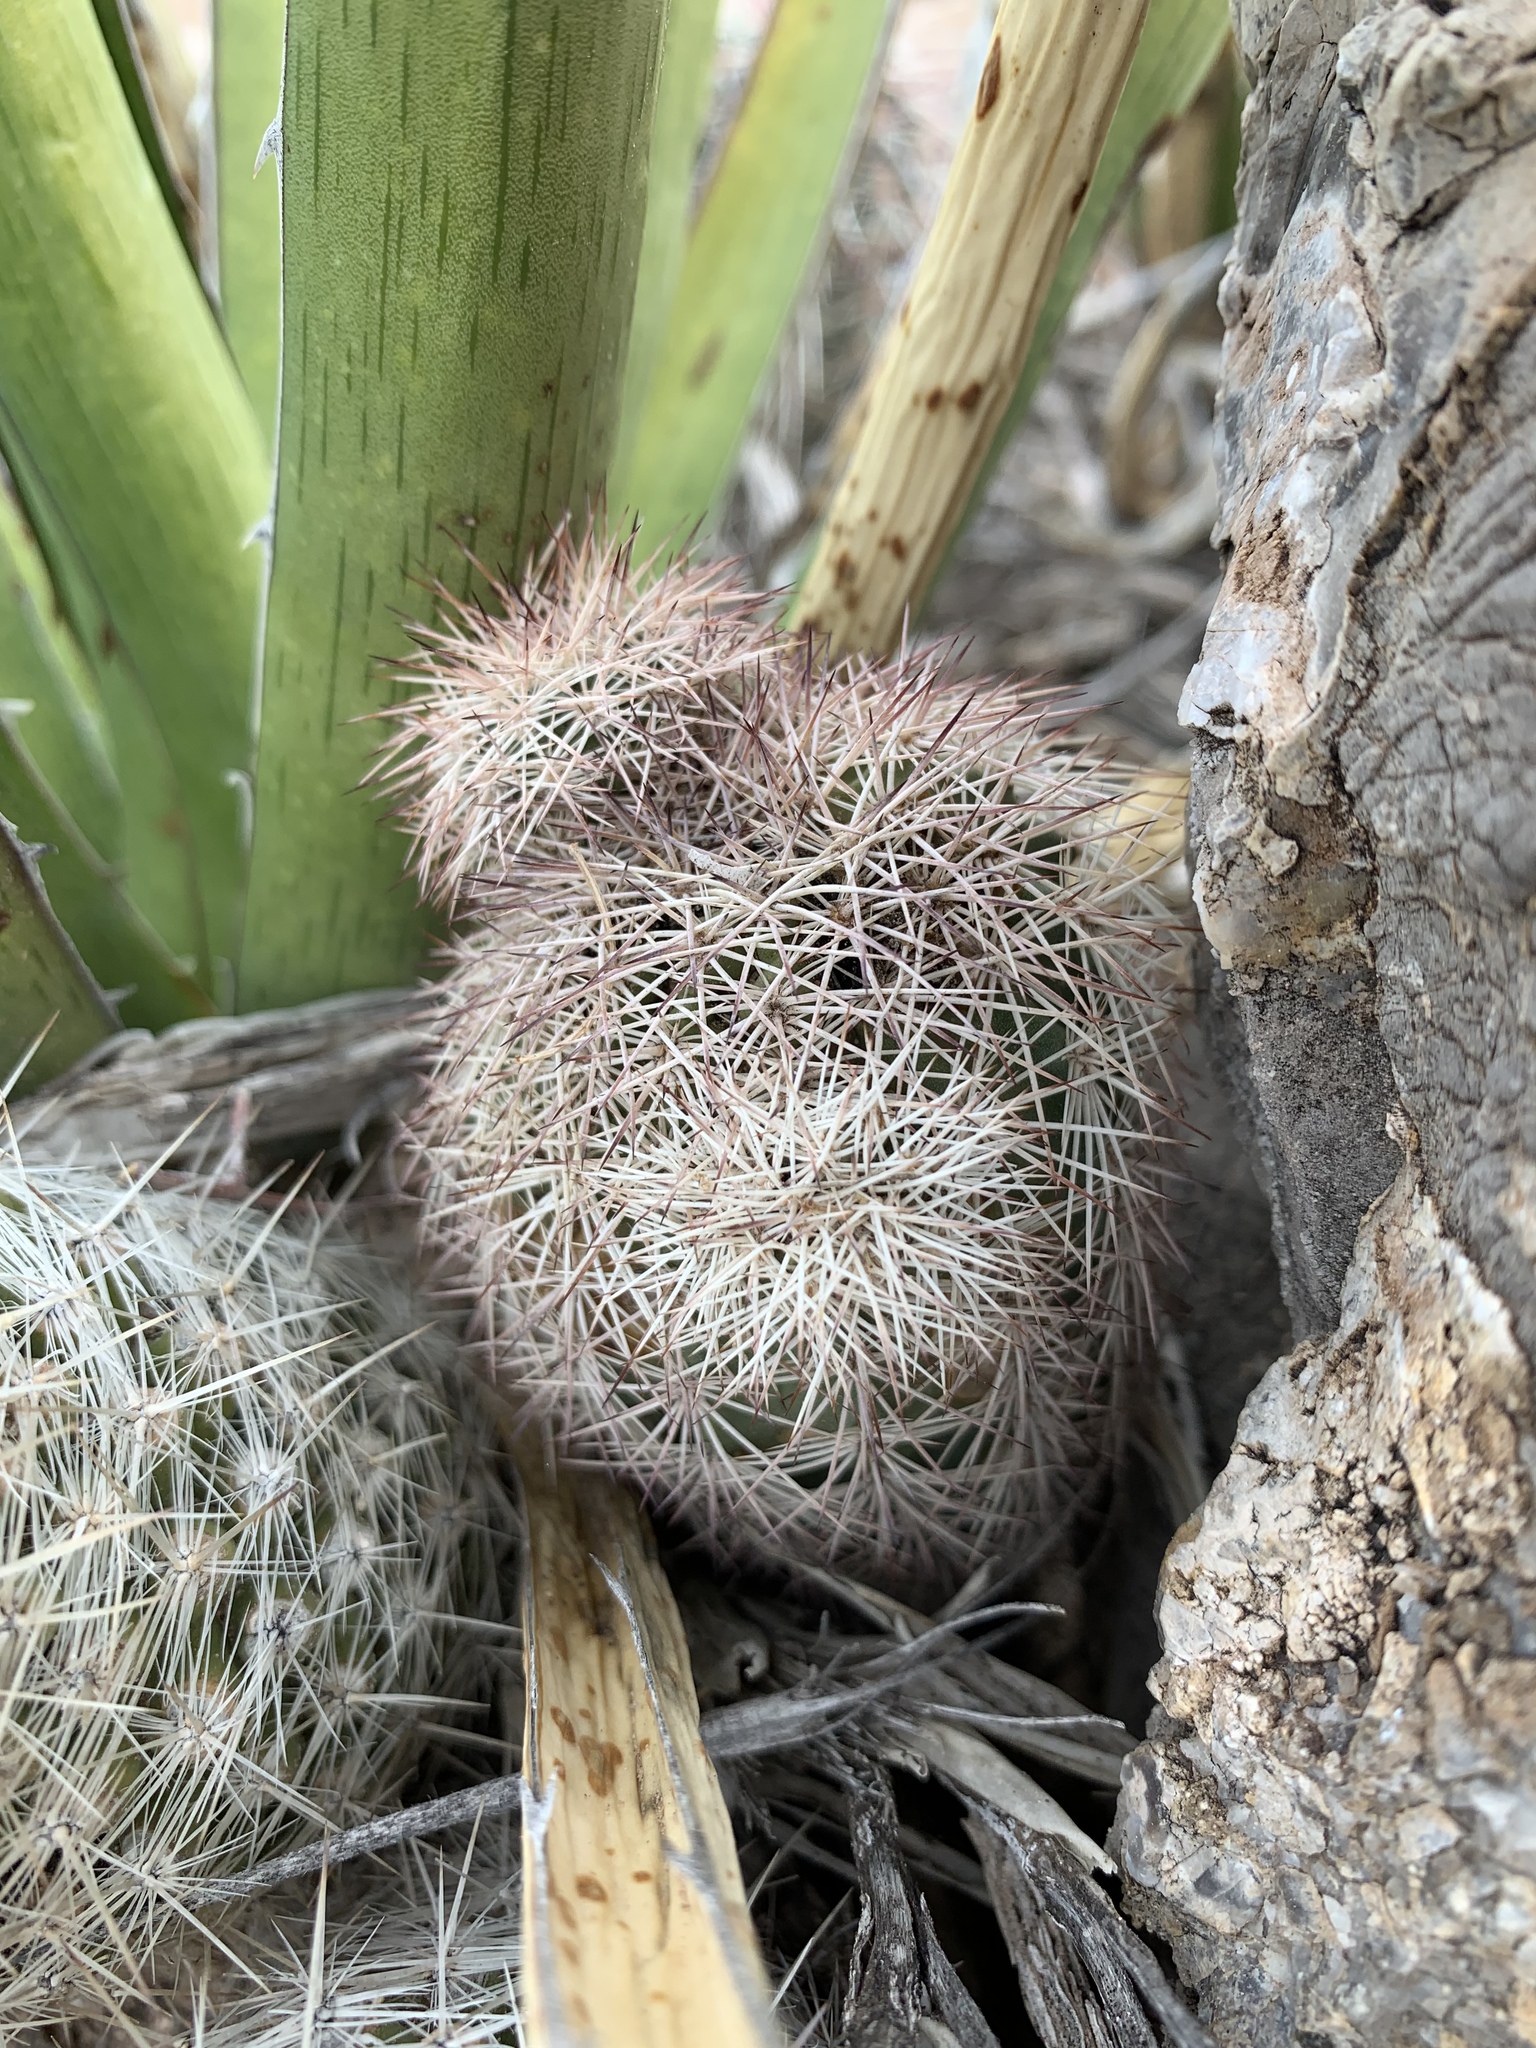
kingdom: Plantae
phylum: Tracheophyta
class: Magnoliopsida
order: Caryophyllales
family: Cactaceae
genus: Echinocereus
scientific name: Echinocereus dasyacanthus
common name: Spiny hedgehog cactus
